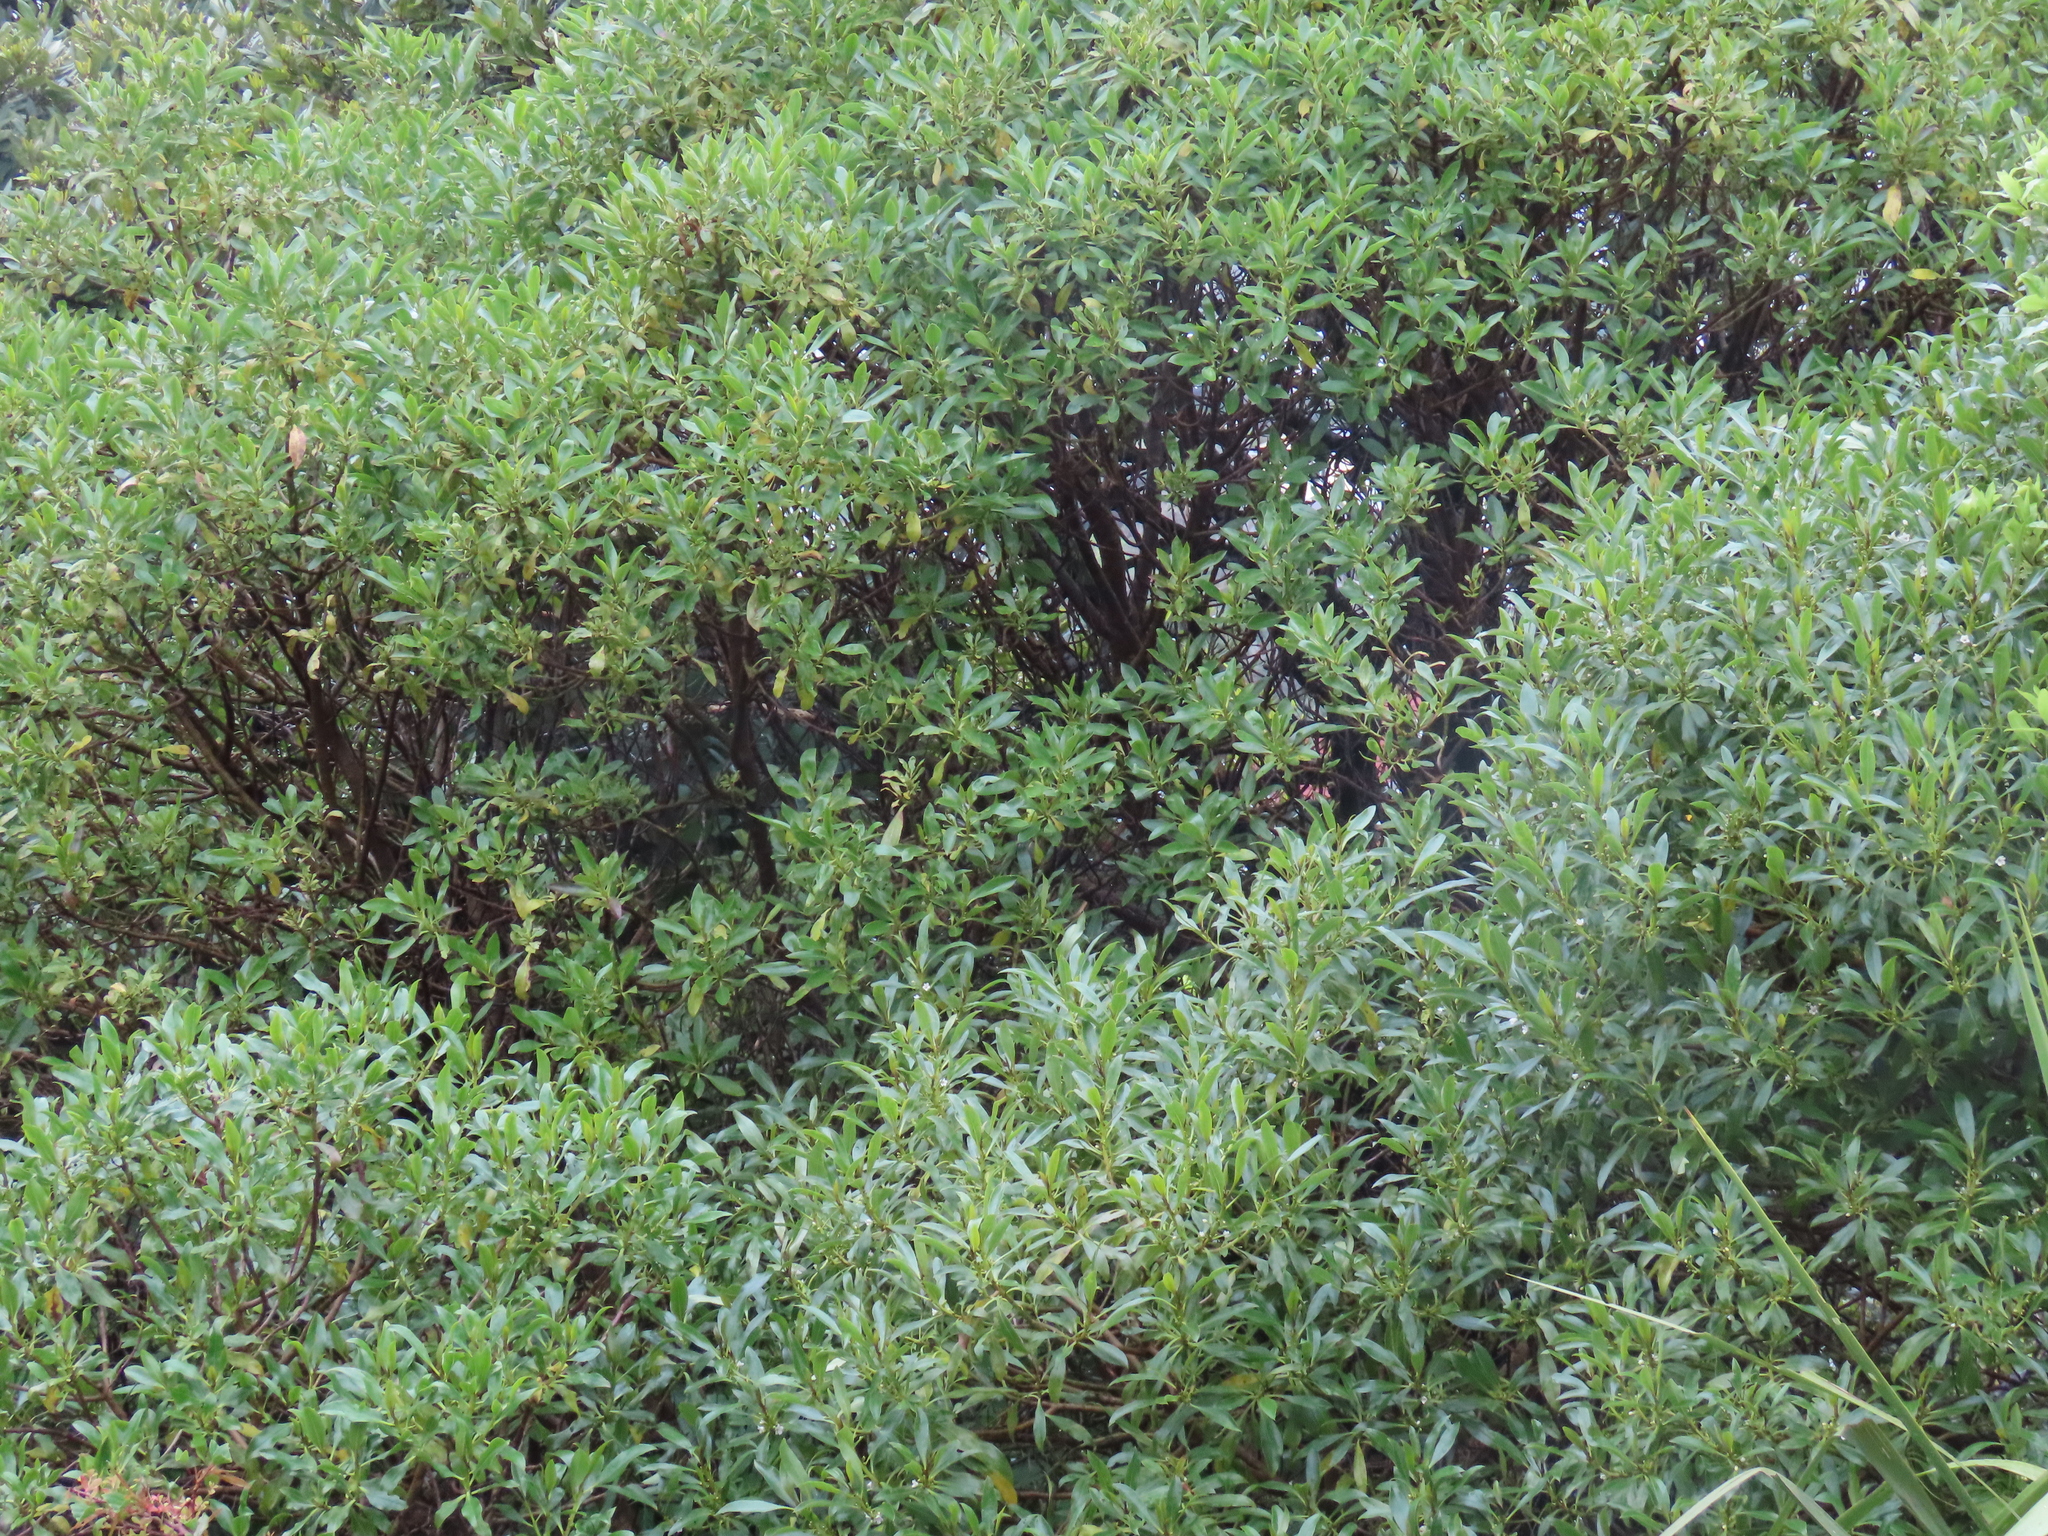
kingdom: Plantae
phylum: Tracheophyta
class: Magnoliopsida
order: Lamiales
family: Scrophulariaceae
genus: Myoporum
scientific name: Myoporum laetum
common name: Ngaio tree
